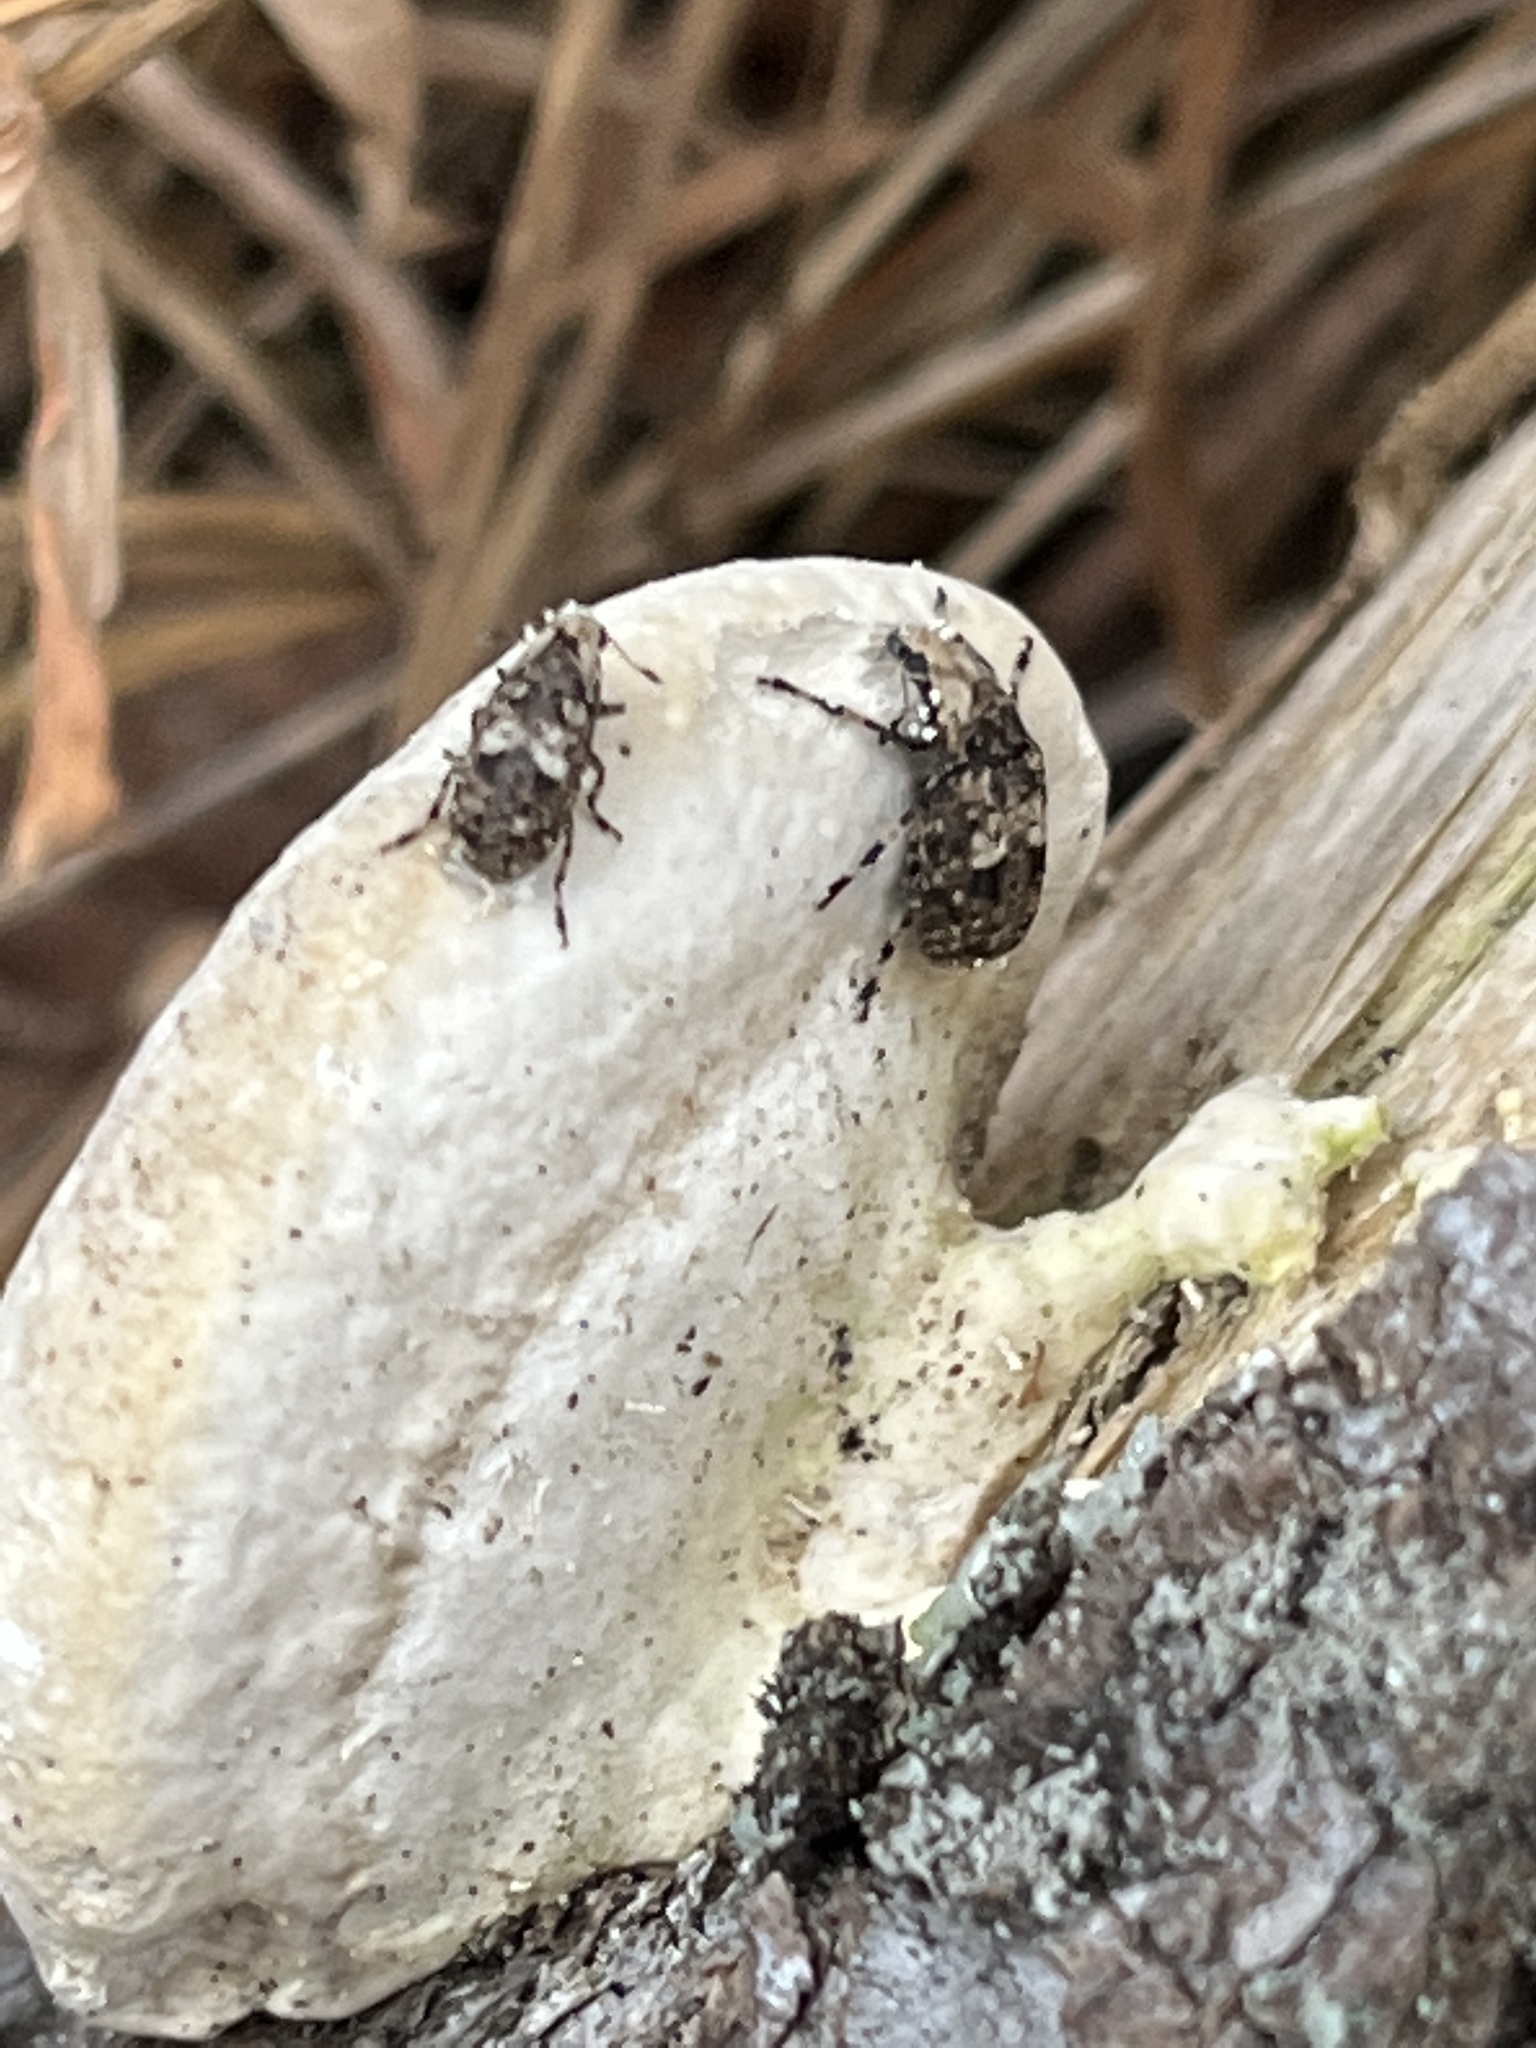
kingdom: Animalia
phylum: Arthropoda
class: Insecta
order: Coleoptera
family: Anthribidae
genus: Euparius
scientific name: Euparius marmoreus
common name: Marbled fungus weevil
